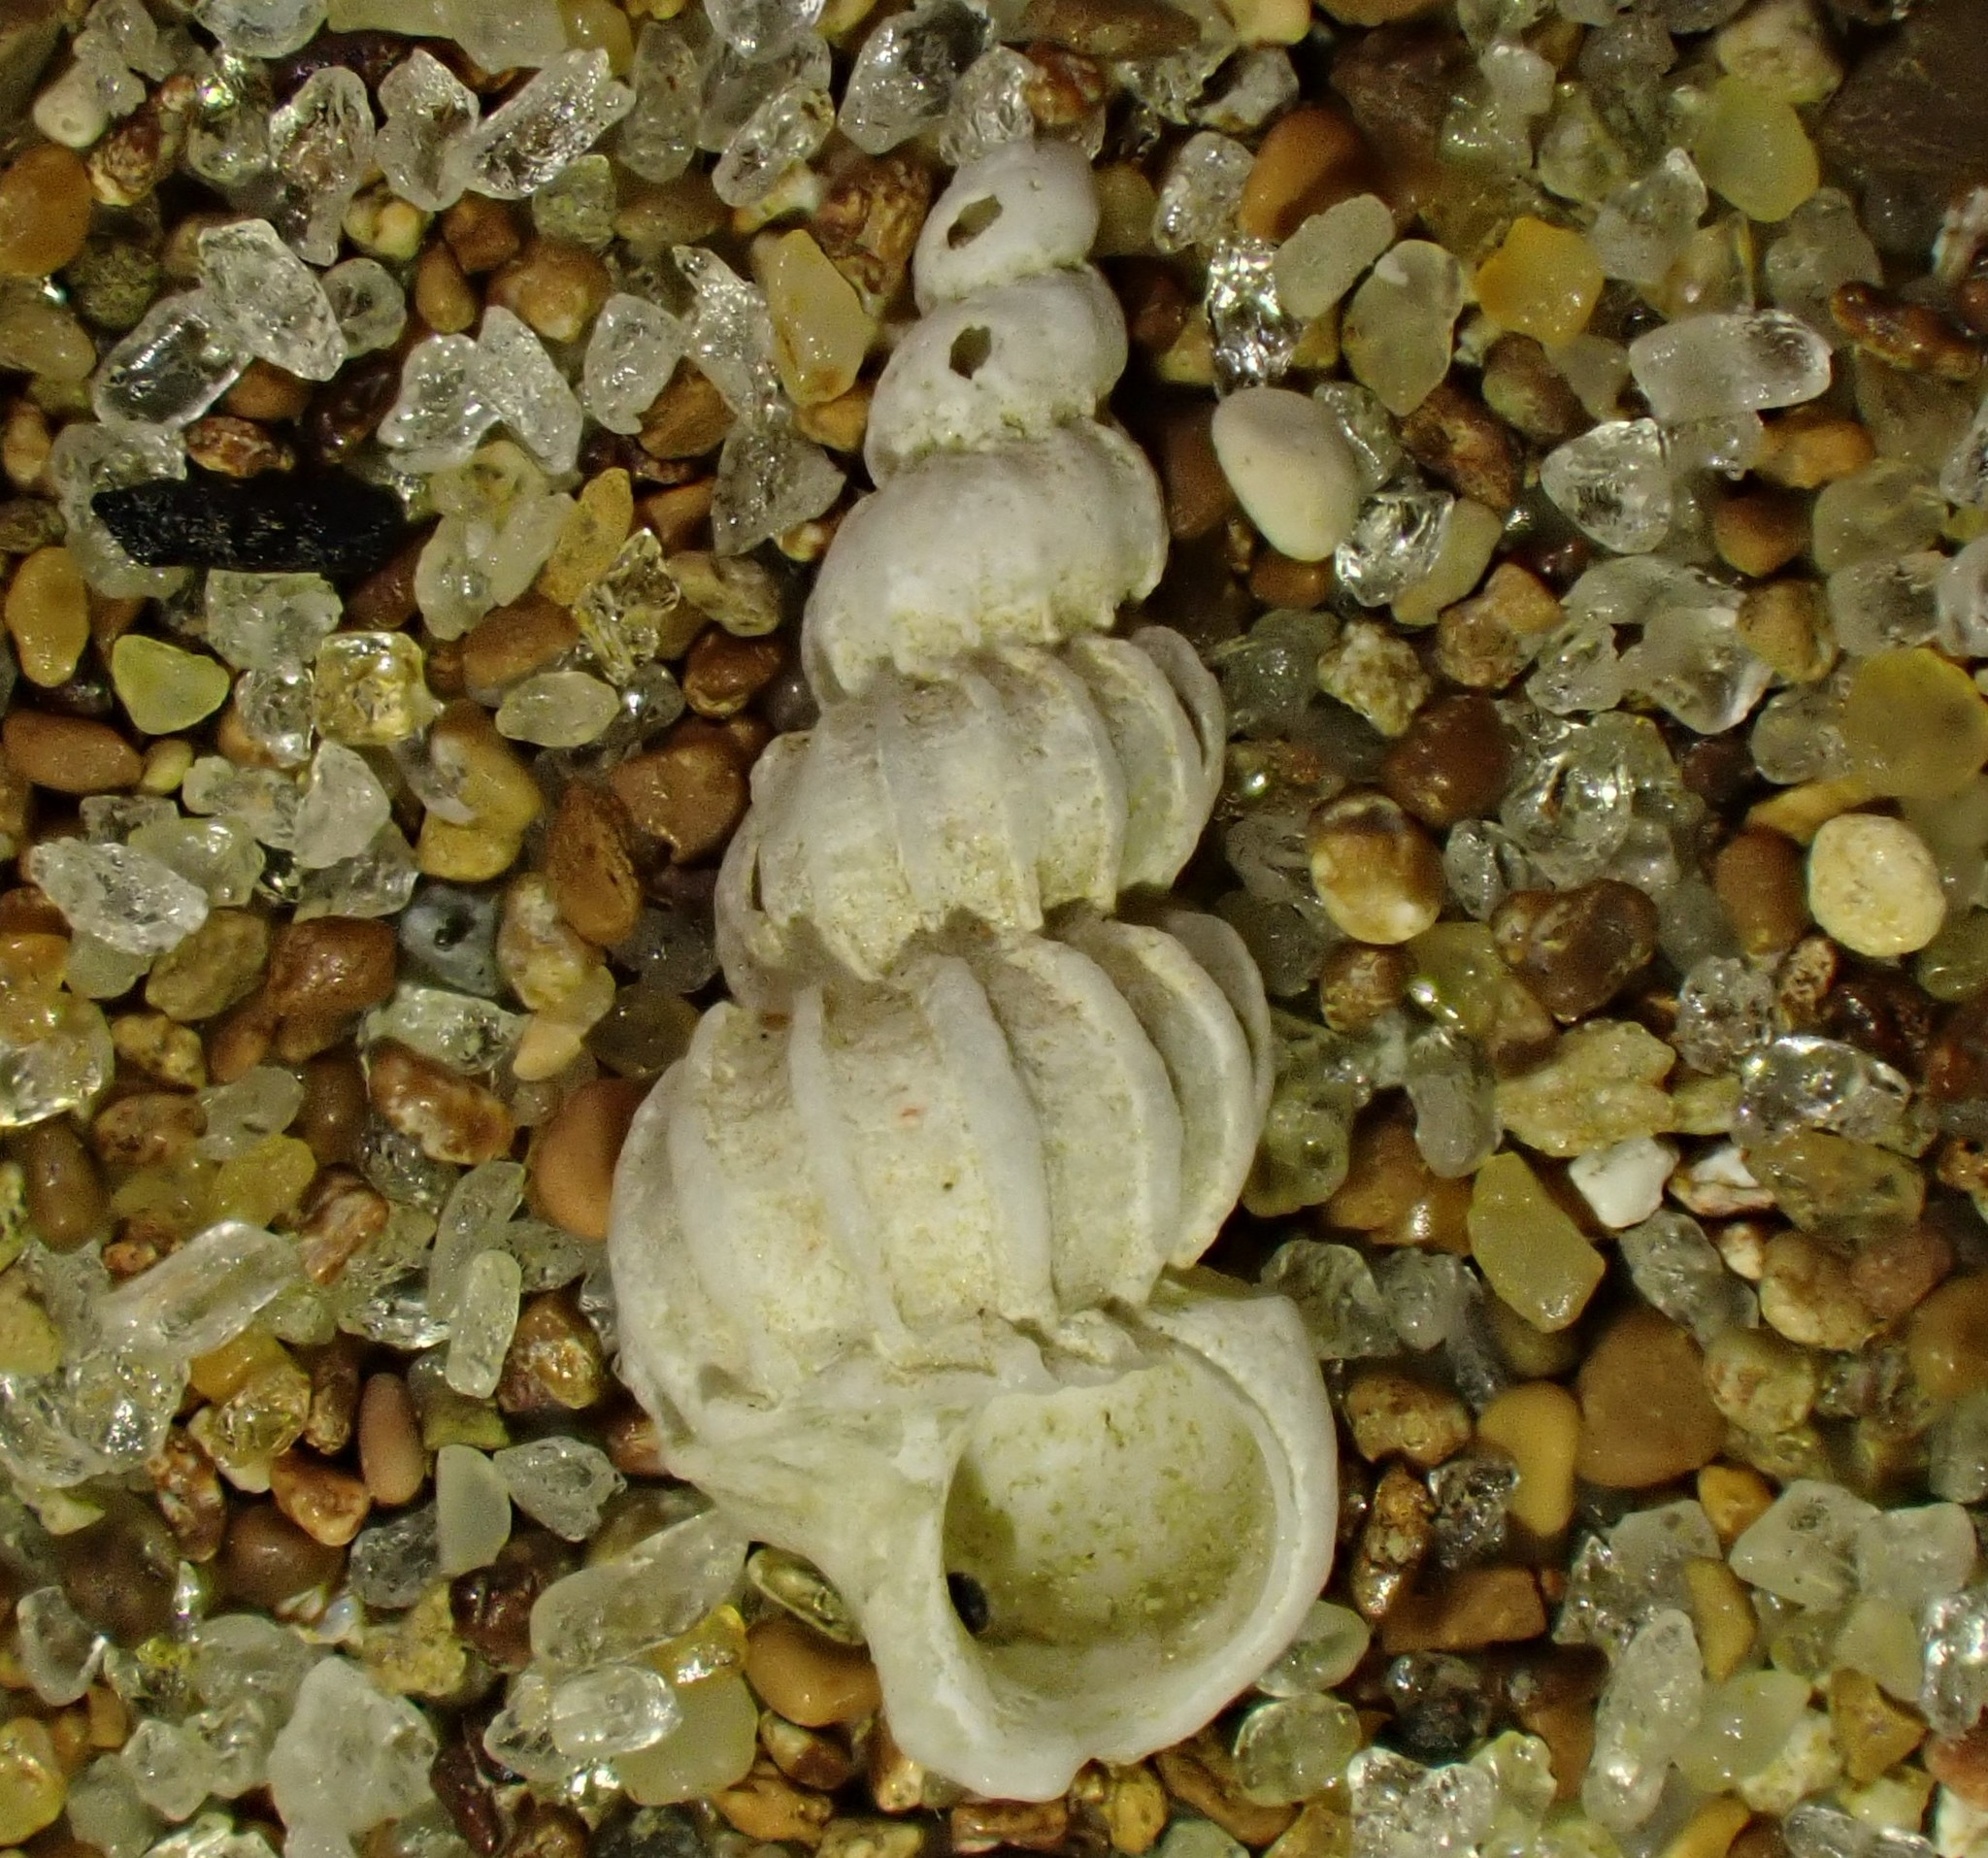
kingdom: Animalia
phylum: Mollusca
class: Gastropoda
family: Epitoniidae
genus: Cirsotrema
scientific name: Cirsotrema zelebori
